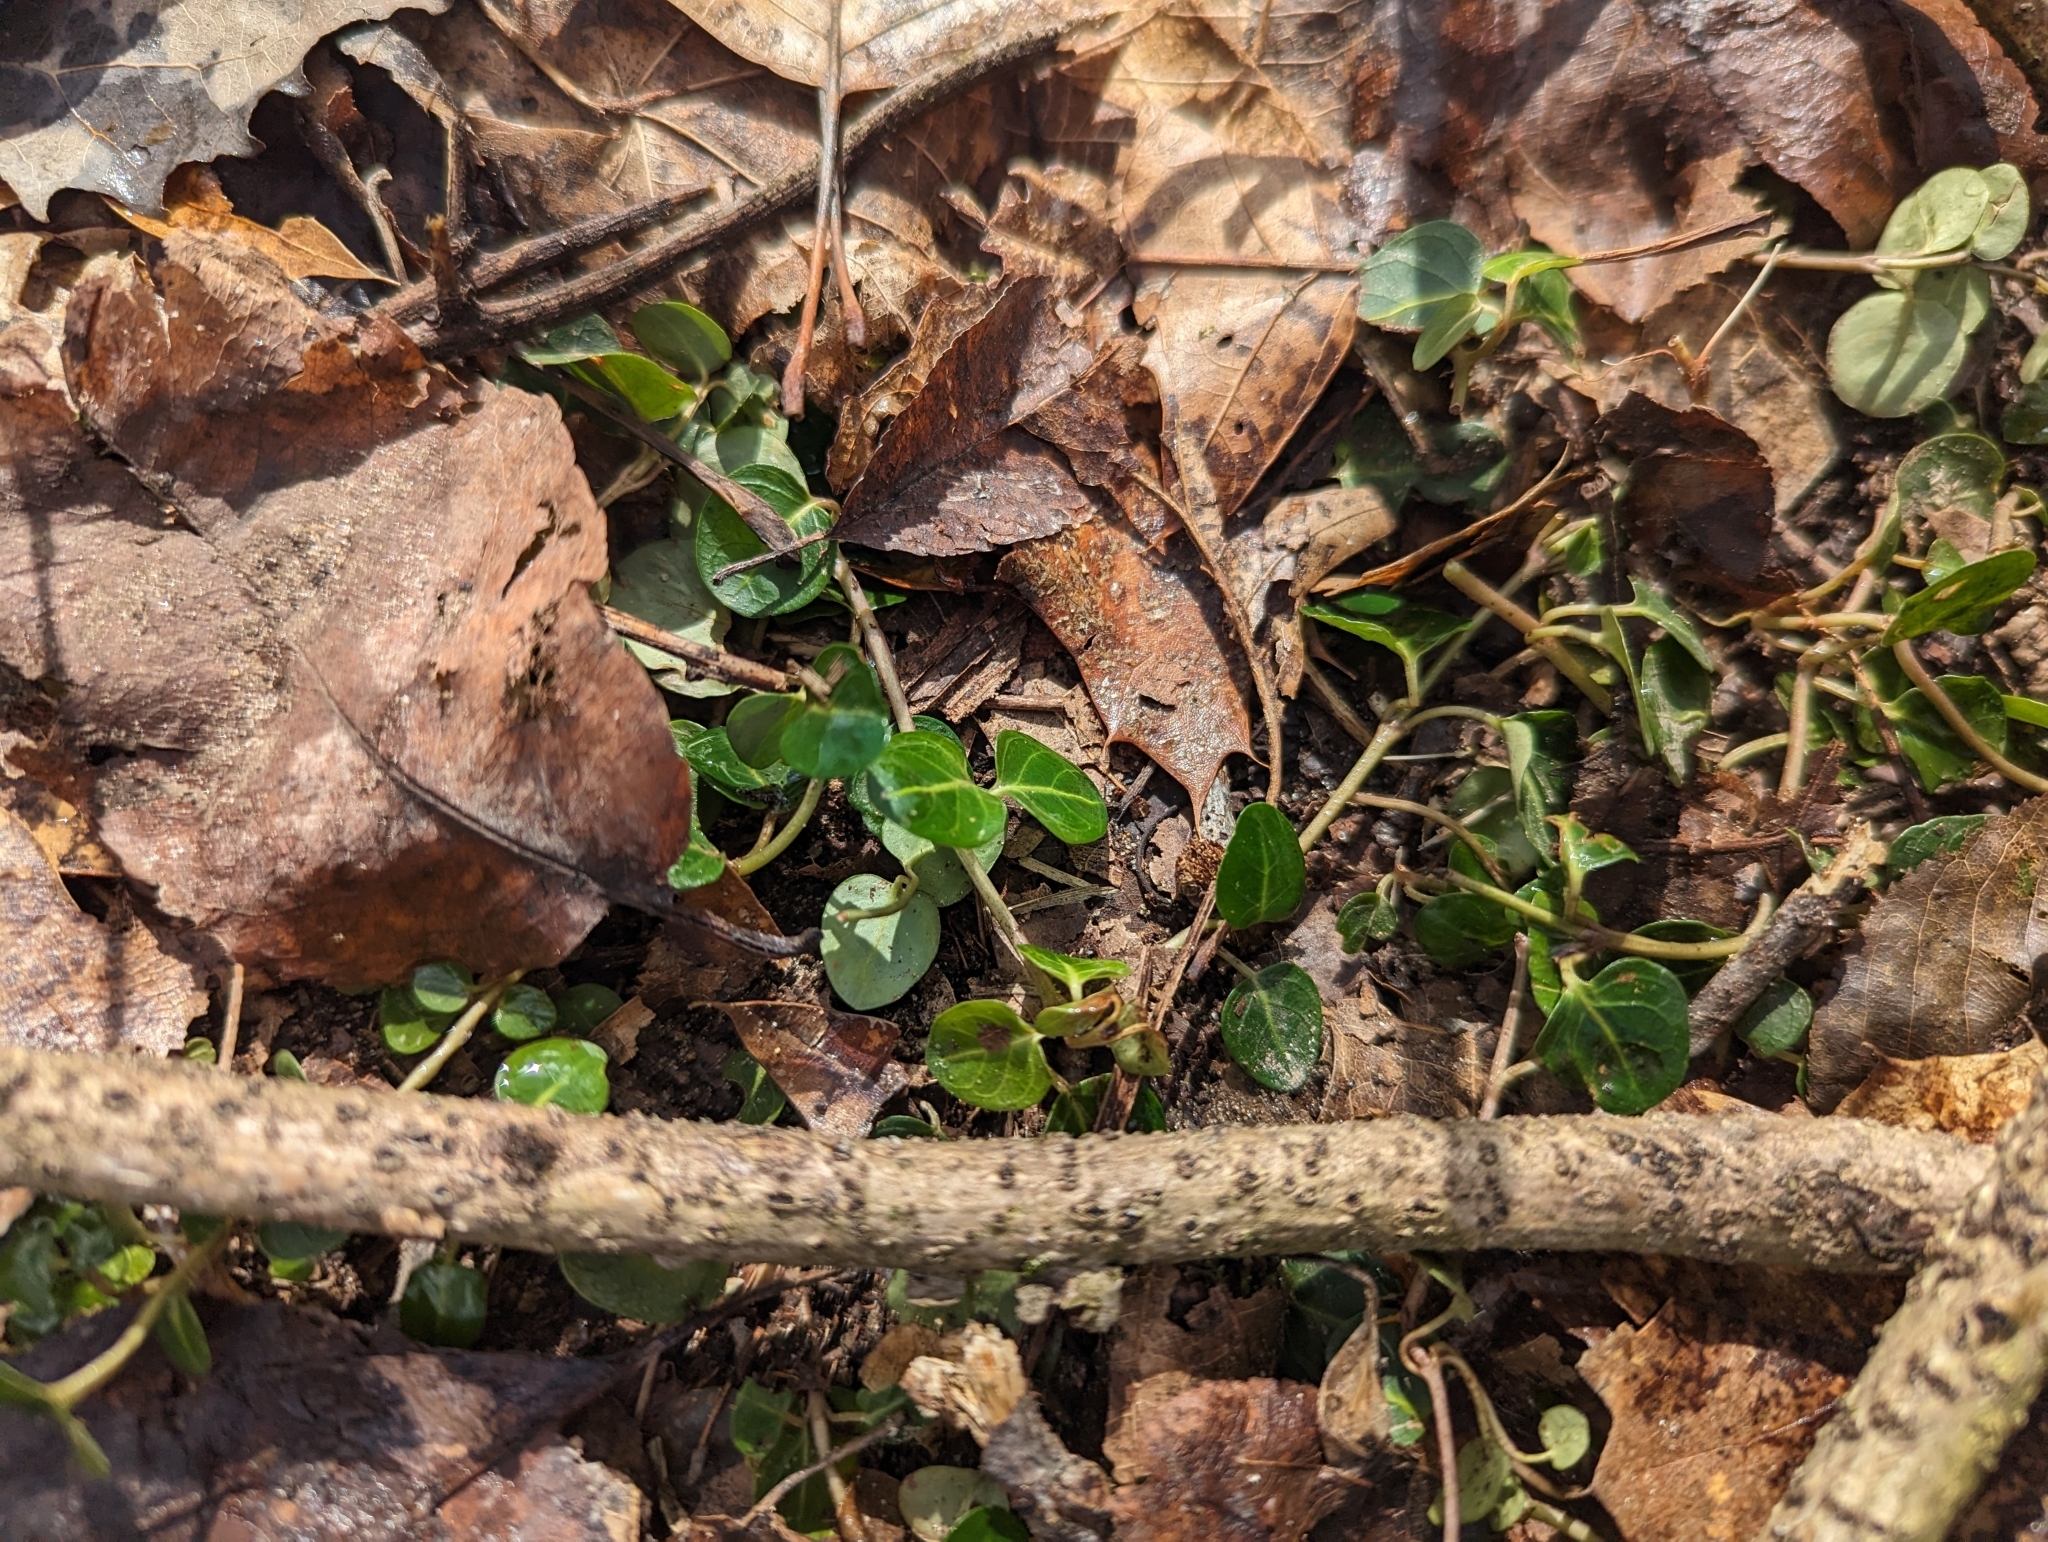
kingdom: Plantae
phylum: Tracheophyta
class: Magnoliopsida
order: Gentianales
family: Rubiaceae
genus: Mitchella
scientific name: Mitchella repens
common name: Partridge-berry
